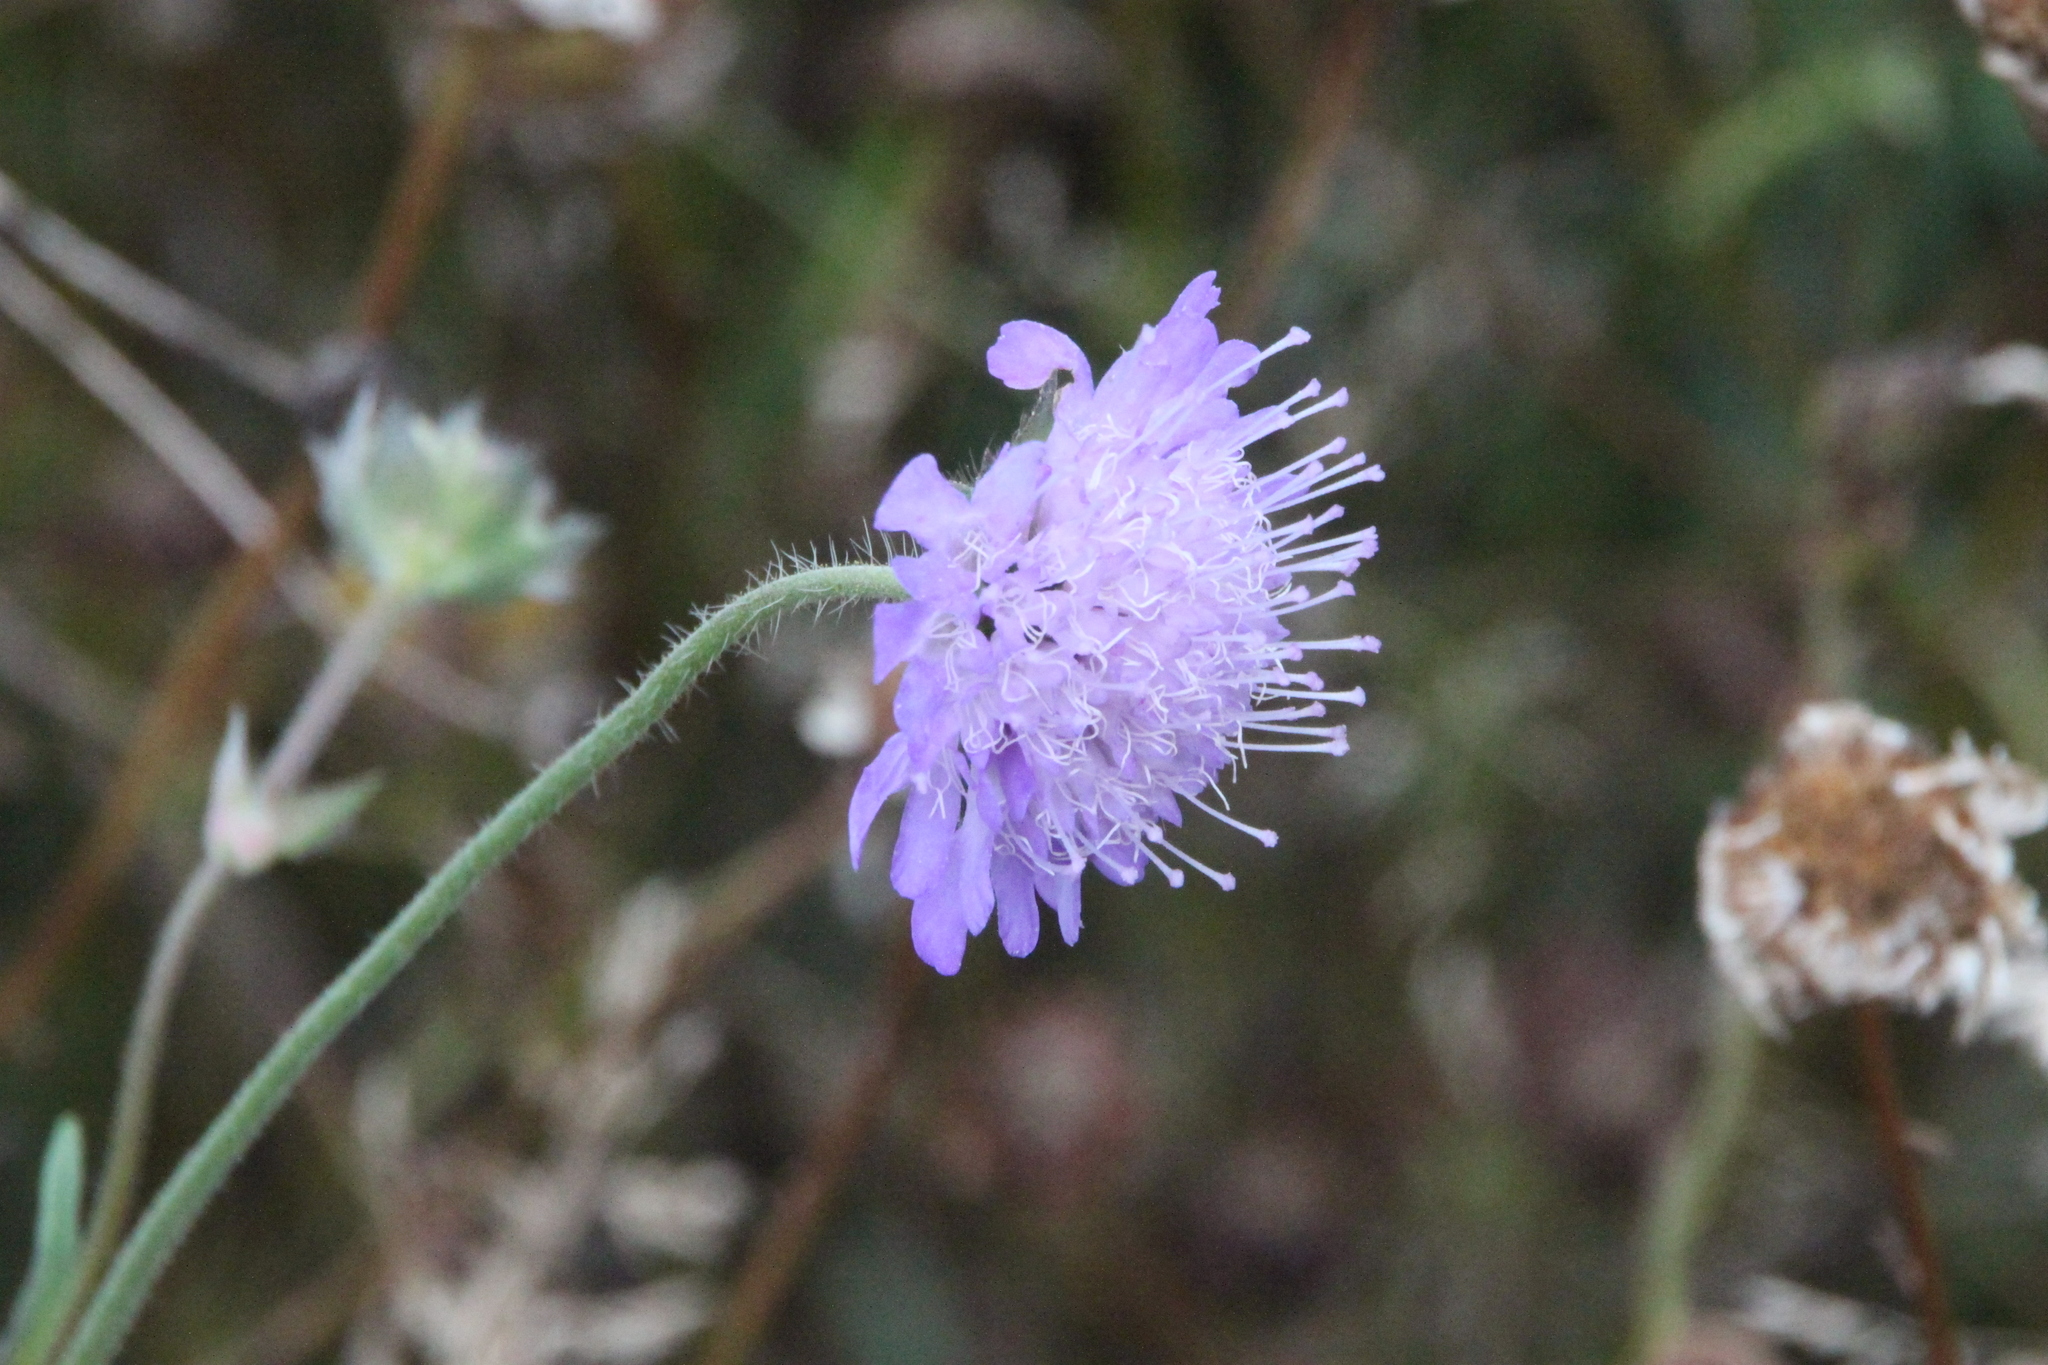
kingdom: Plantae
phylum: Tracheophyta
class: Magnoliopsida
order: Dipsacales
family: Caprifoliaceae
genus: Knautia
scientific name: Knautia arvensis
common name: Field scabiosa
